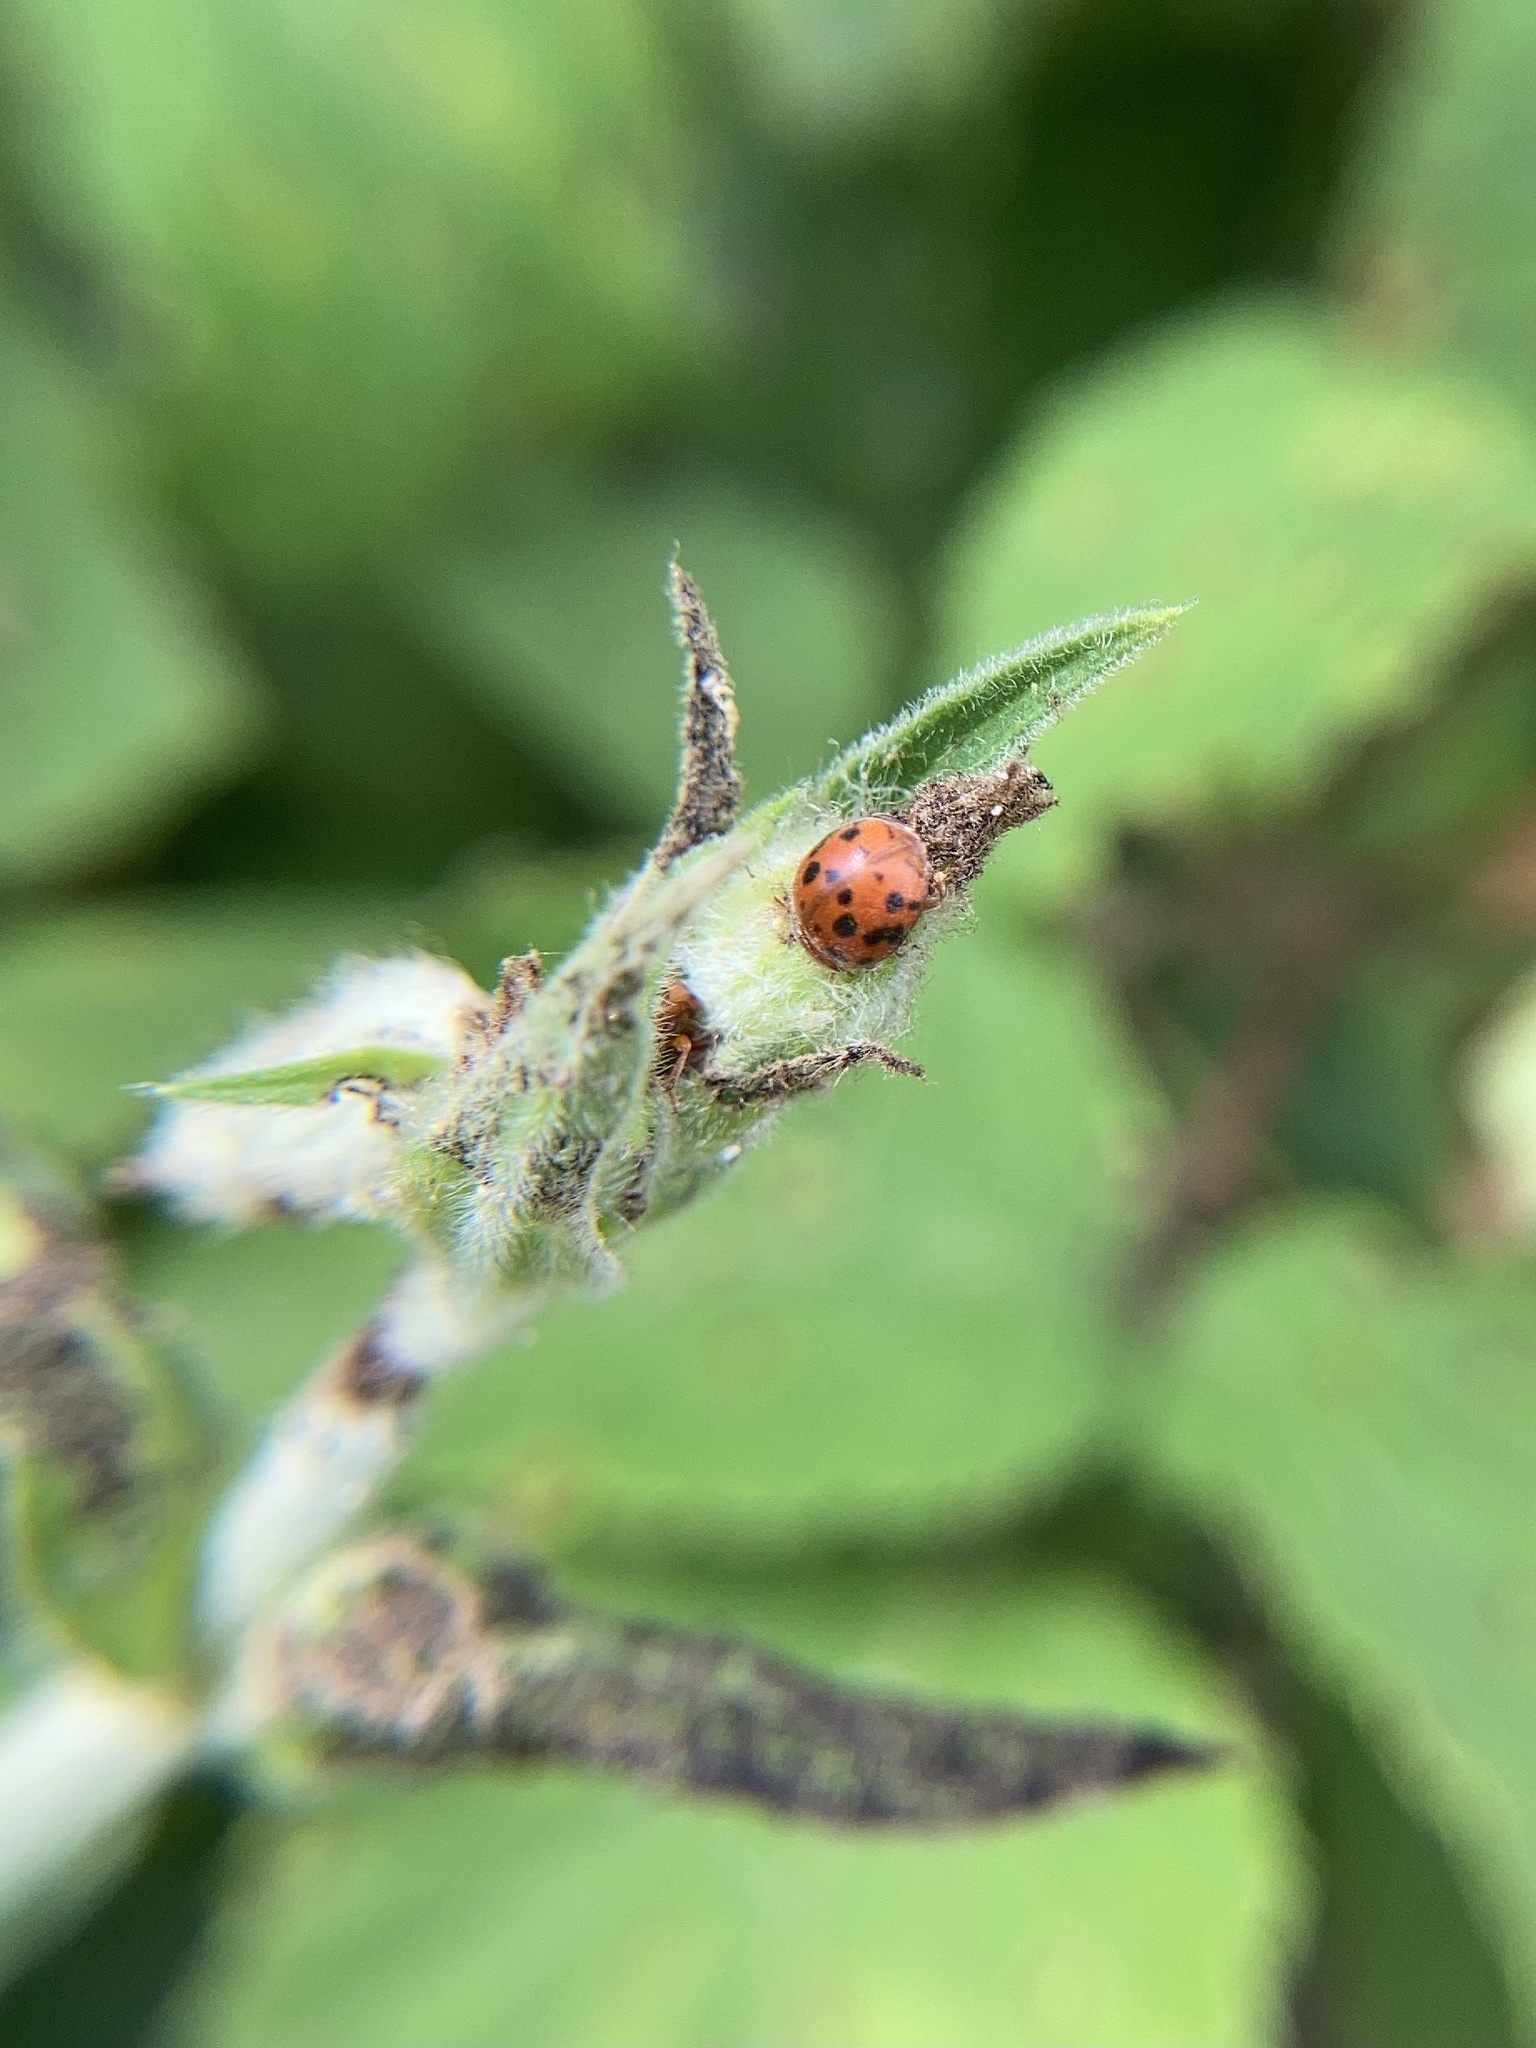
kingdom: Animalia
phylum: Arthropoda
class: Insecta
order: Coleoptera
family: Coccinellidae
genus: Subcoccinella
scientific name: Subcoccinella vigintiquatuorpunctata
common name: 24-spot ladybird
